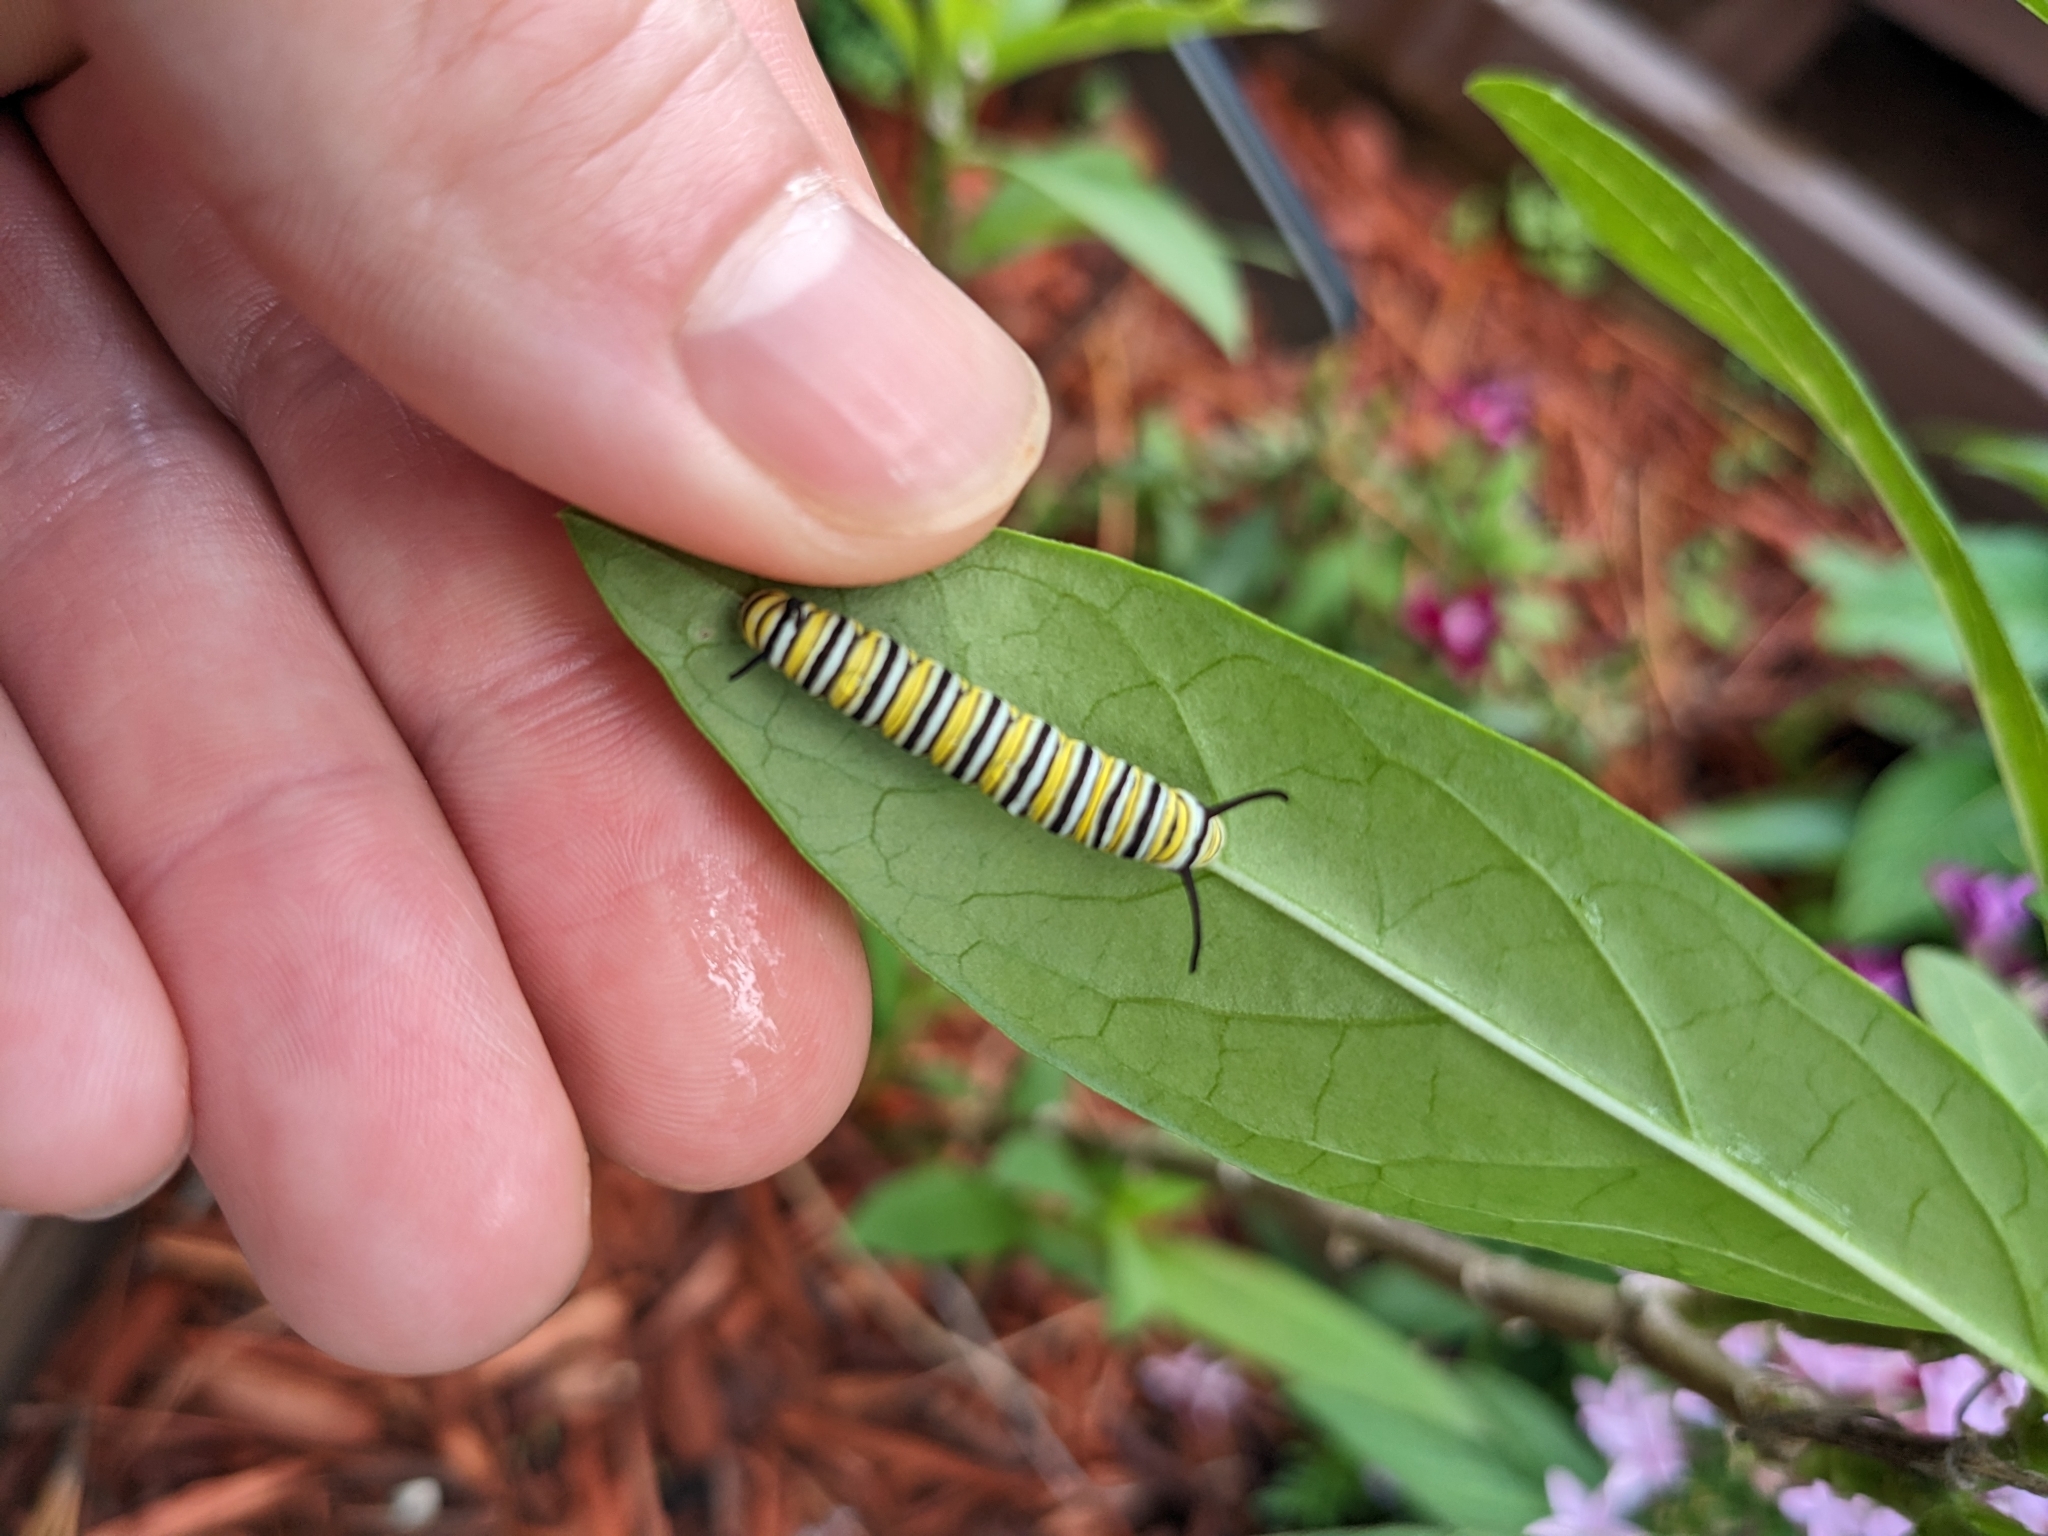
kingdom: Animalia
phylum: Arthropoda
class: Insecta
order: Lepidoptera
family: Nymphalidae
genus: Danaus
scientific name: Danaus plexippus
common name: Monarch
